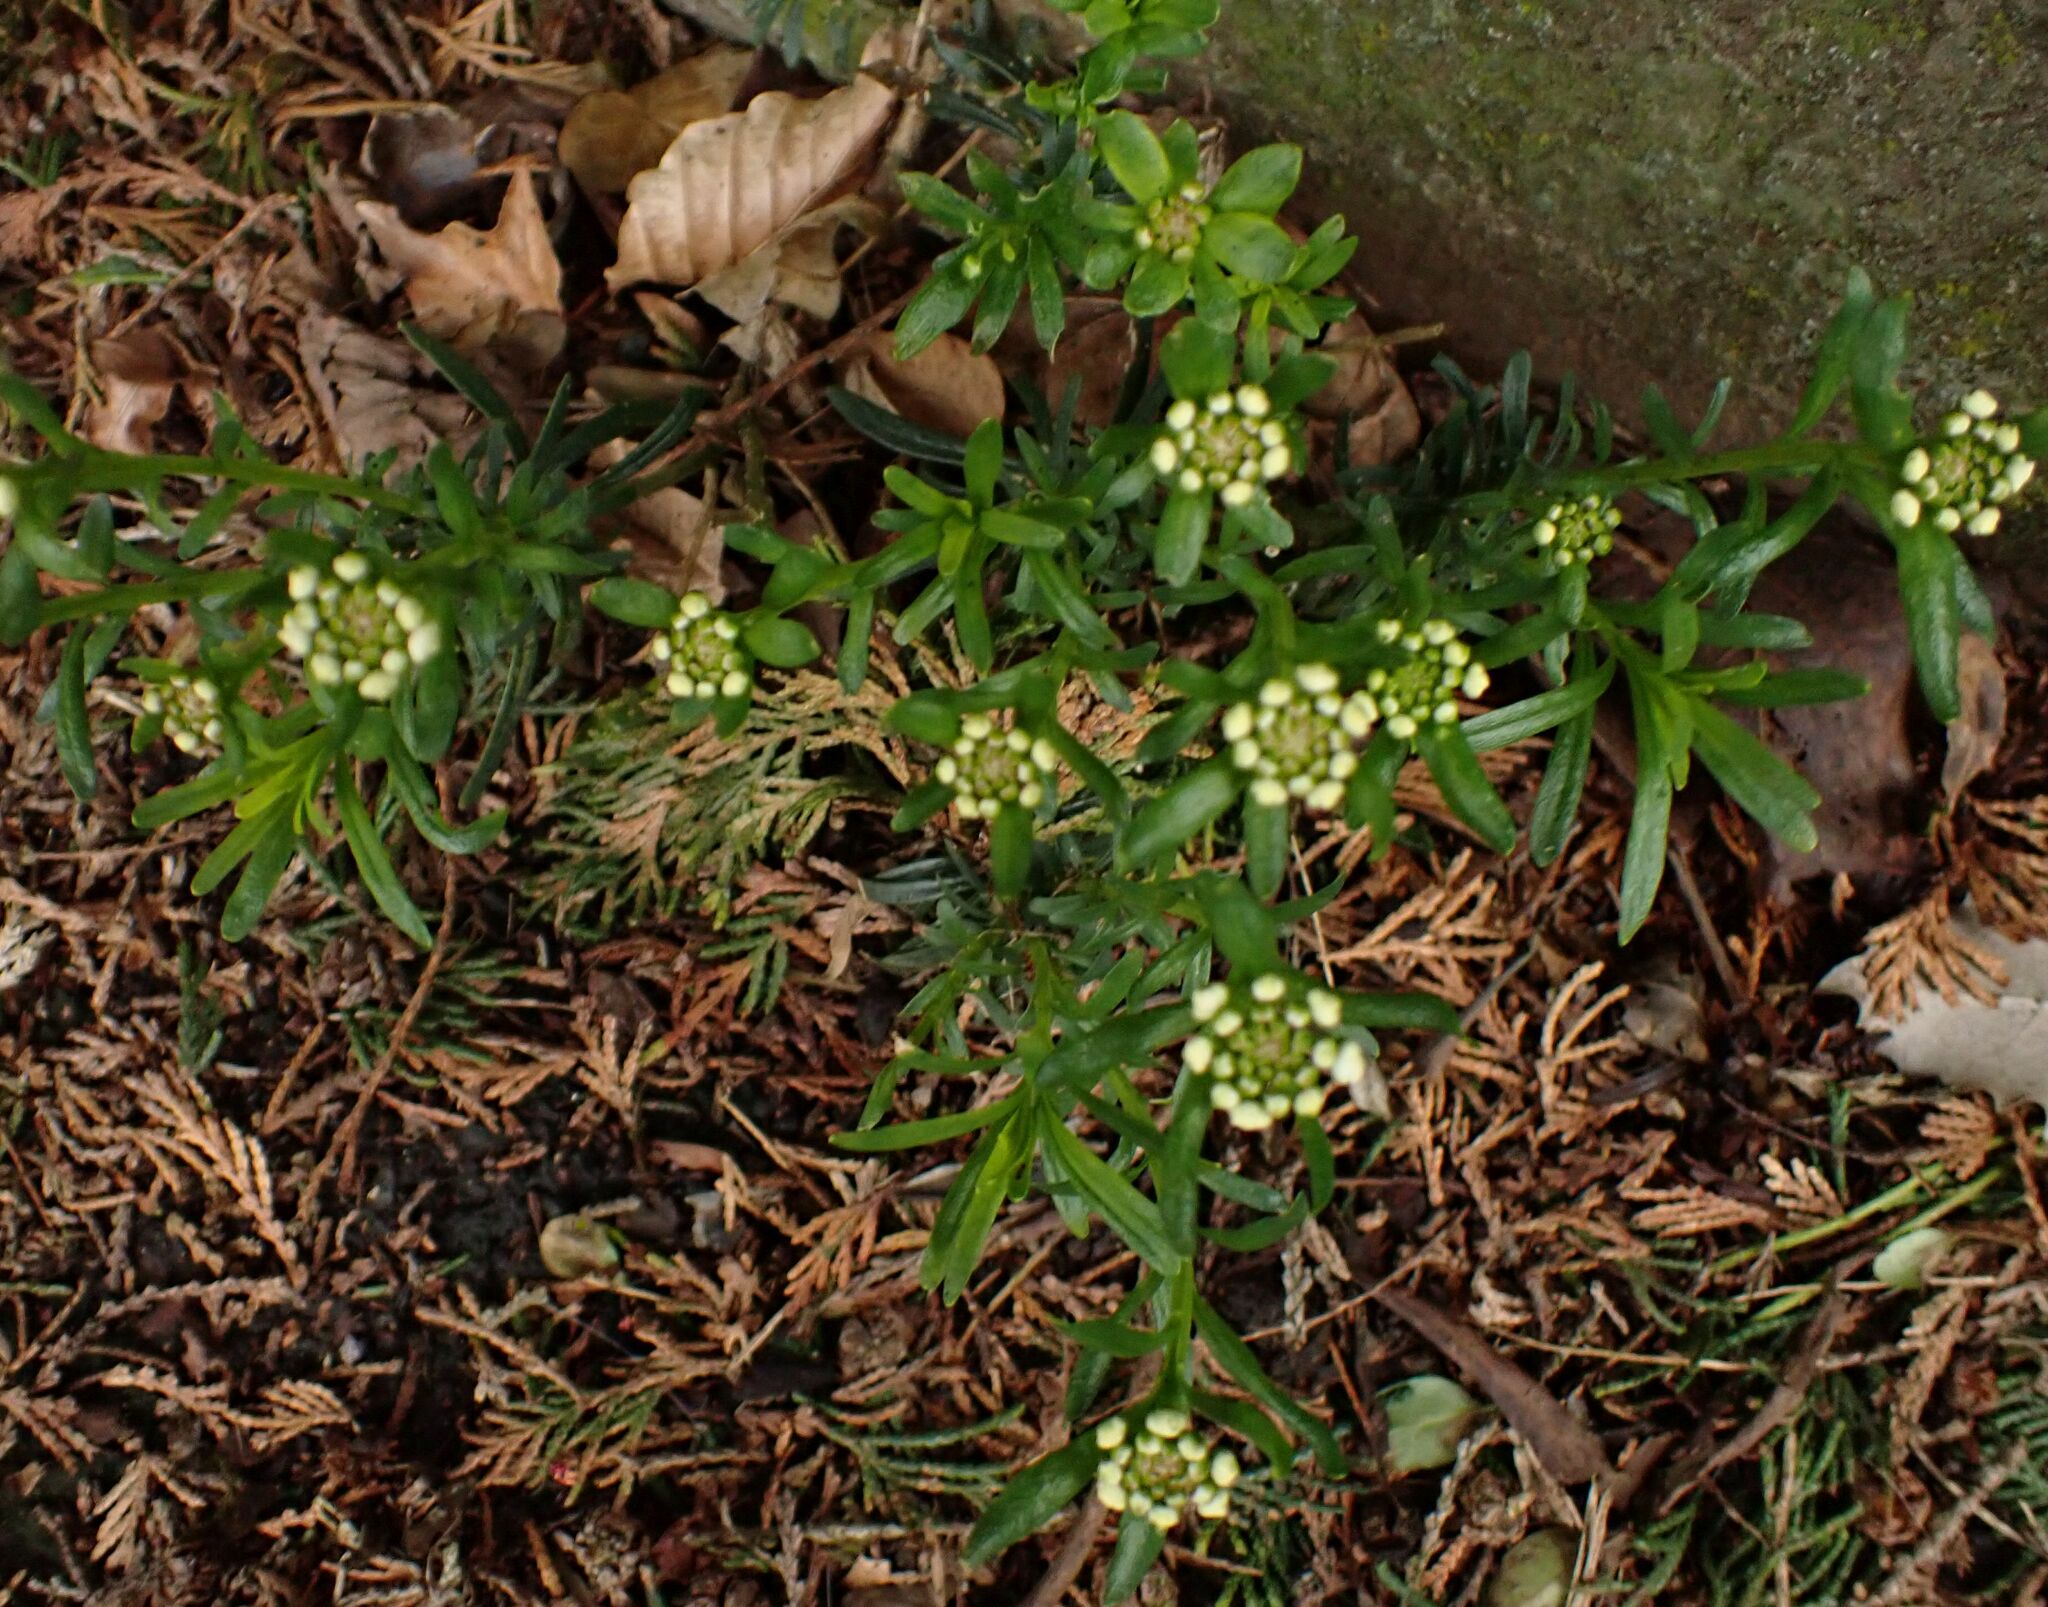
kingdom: Plantae
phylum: Tracheophyta
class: Magnoliopsida
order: Brassicales
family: Brassicaceae
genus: Iberis
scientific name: Iberis sempervirens
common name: Evergreen candytuft
